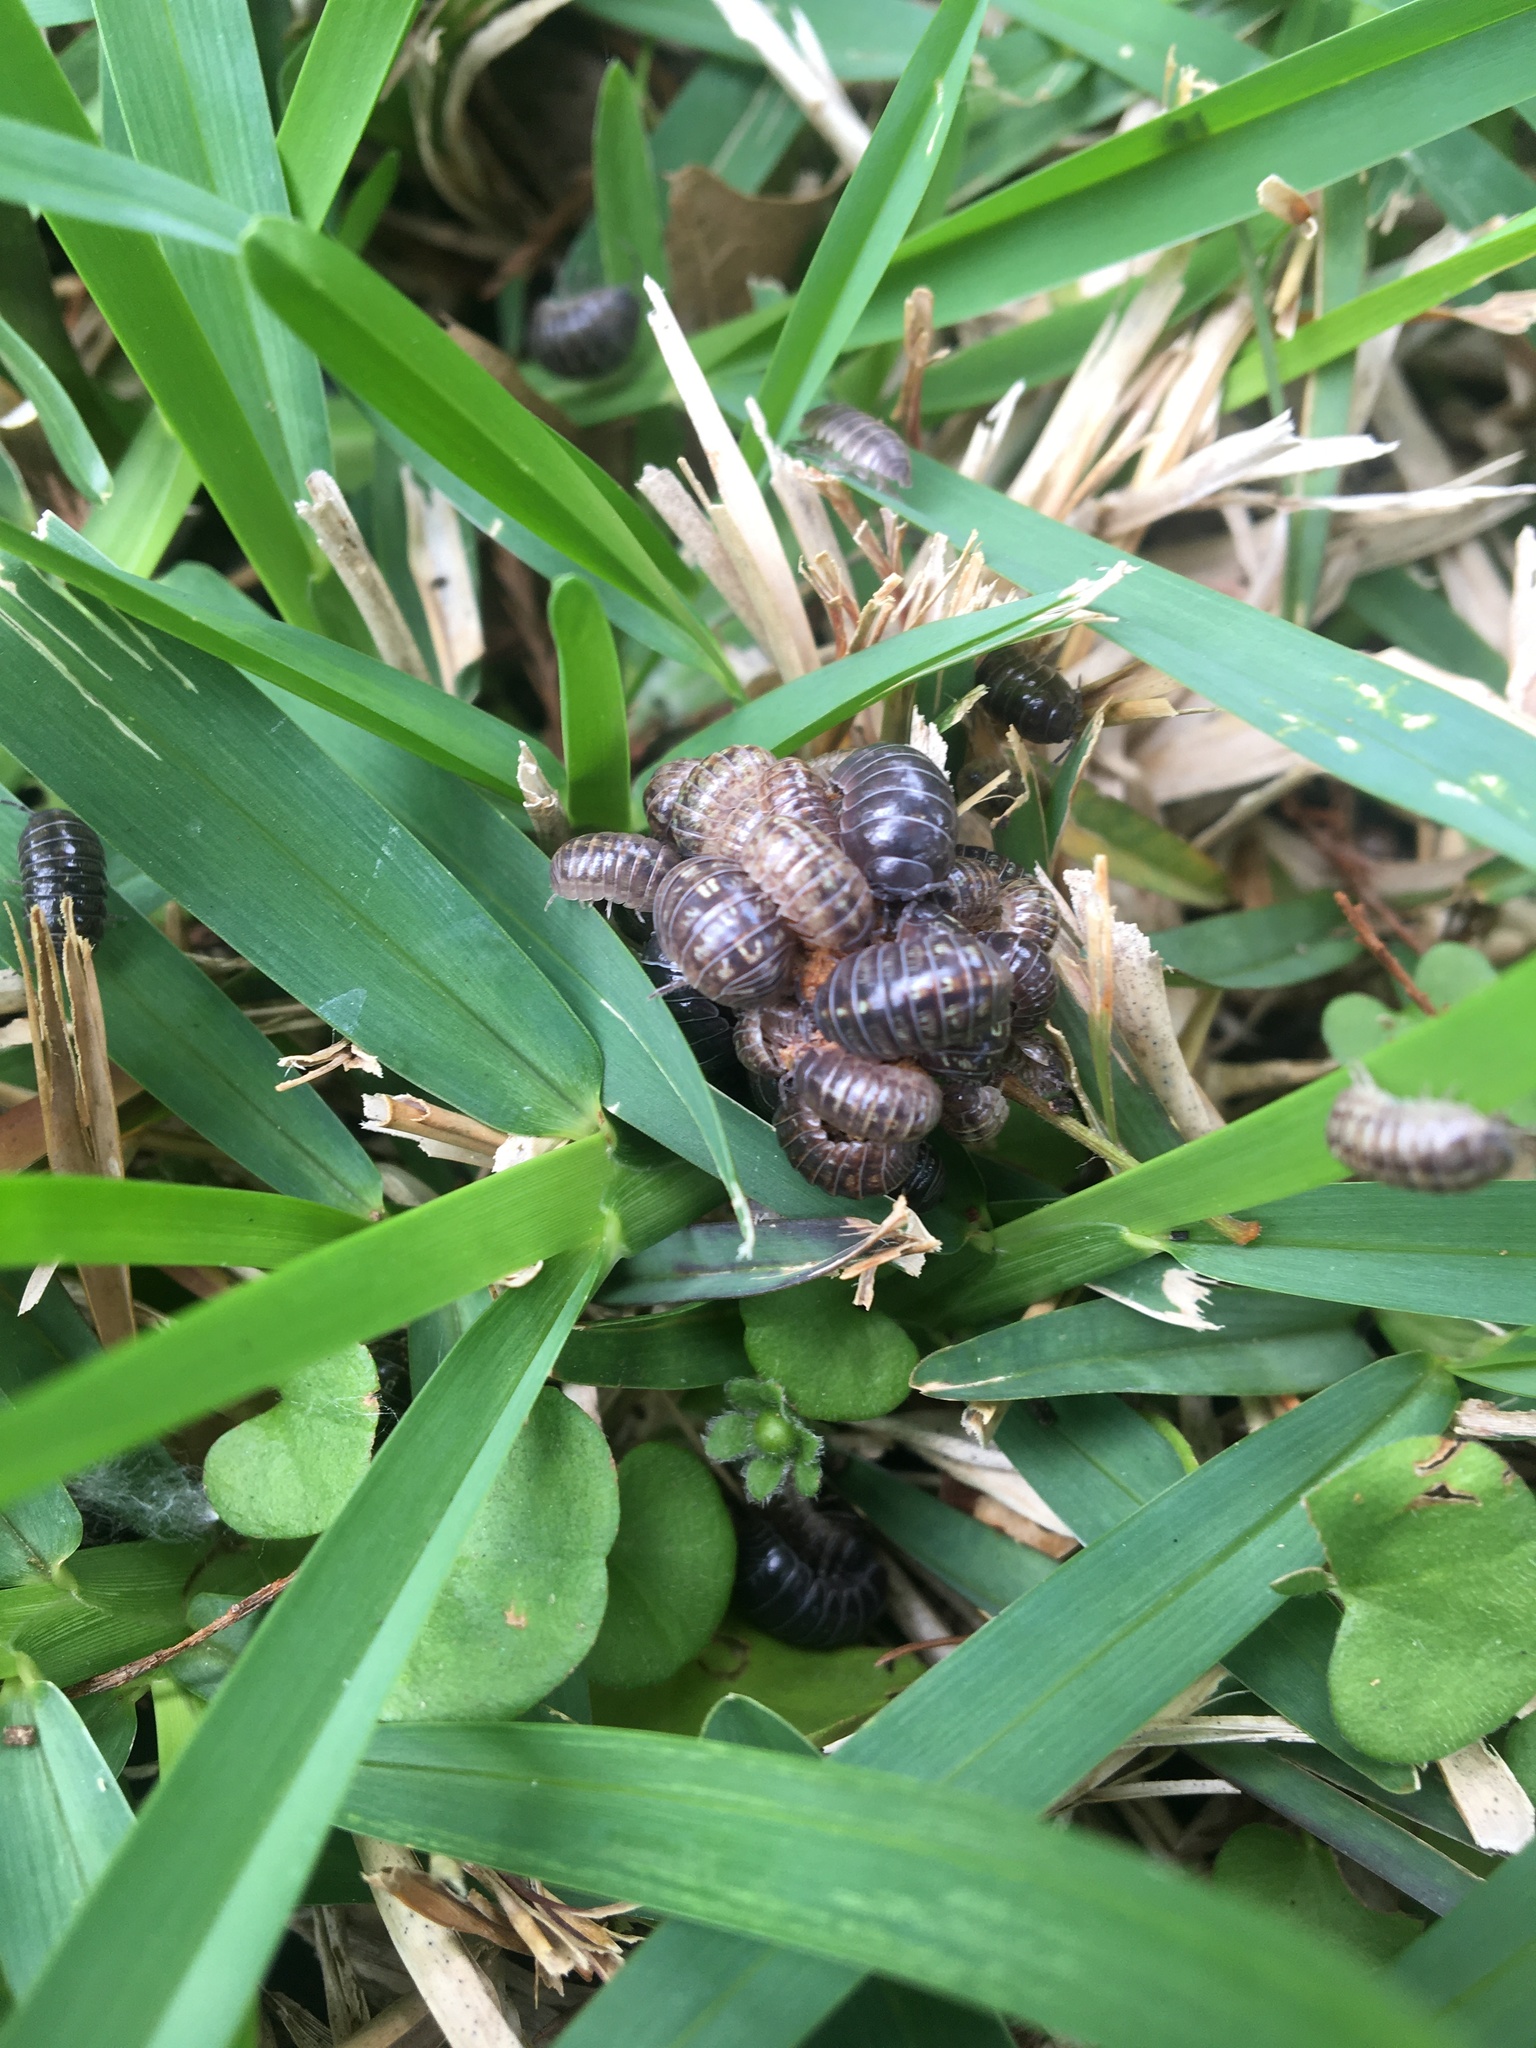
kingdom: Animalia
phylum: Arthropoda
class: Malacostraca
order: Isopoda
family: Armadillidiidae
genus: Armadillidium
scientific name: Armadillidium vulgare
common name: Common pill woodlouse
